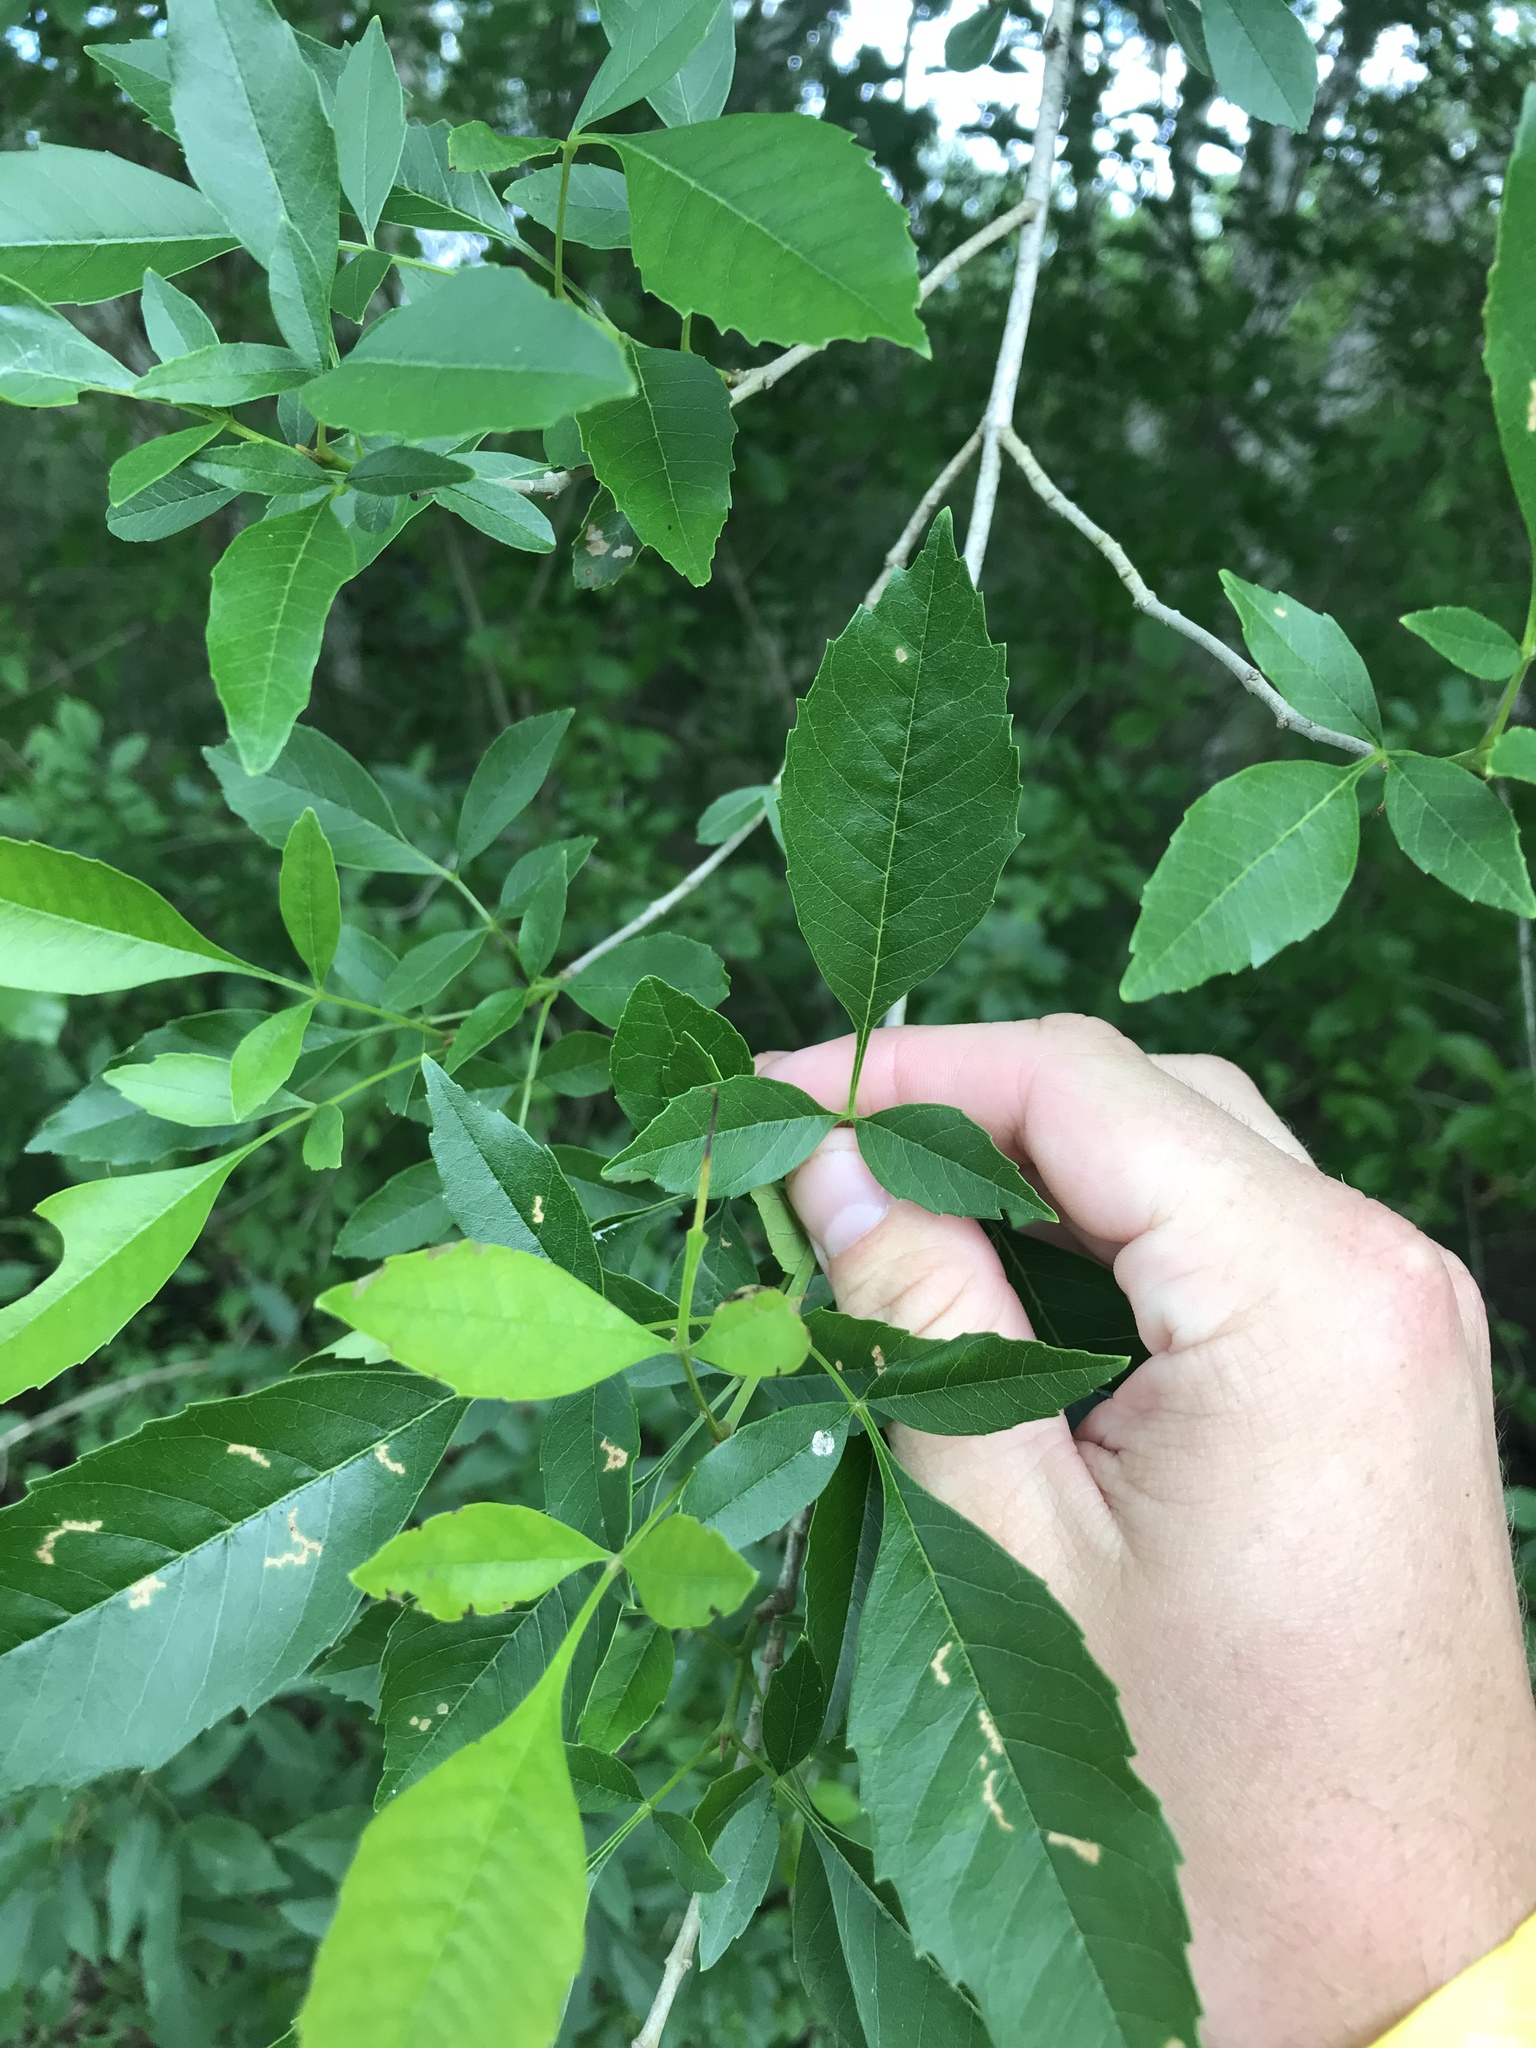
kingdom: Plantae
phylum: Tracheophyta
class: Magnoliopsida
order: Lamiales
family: Oleaceae
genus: Fraxinus
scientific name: Fraxinus berlandieriana
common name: Berlandier ash
